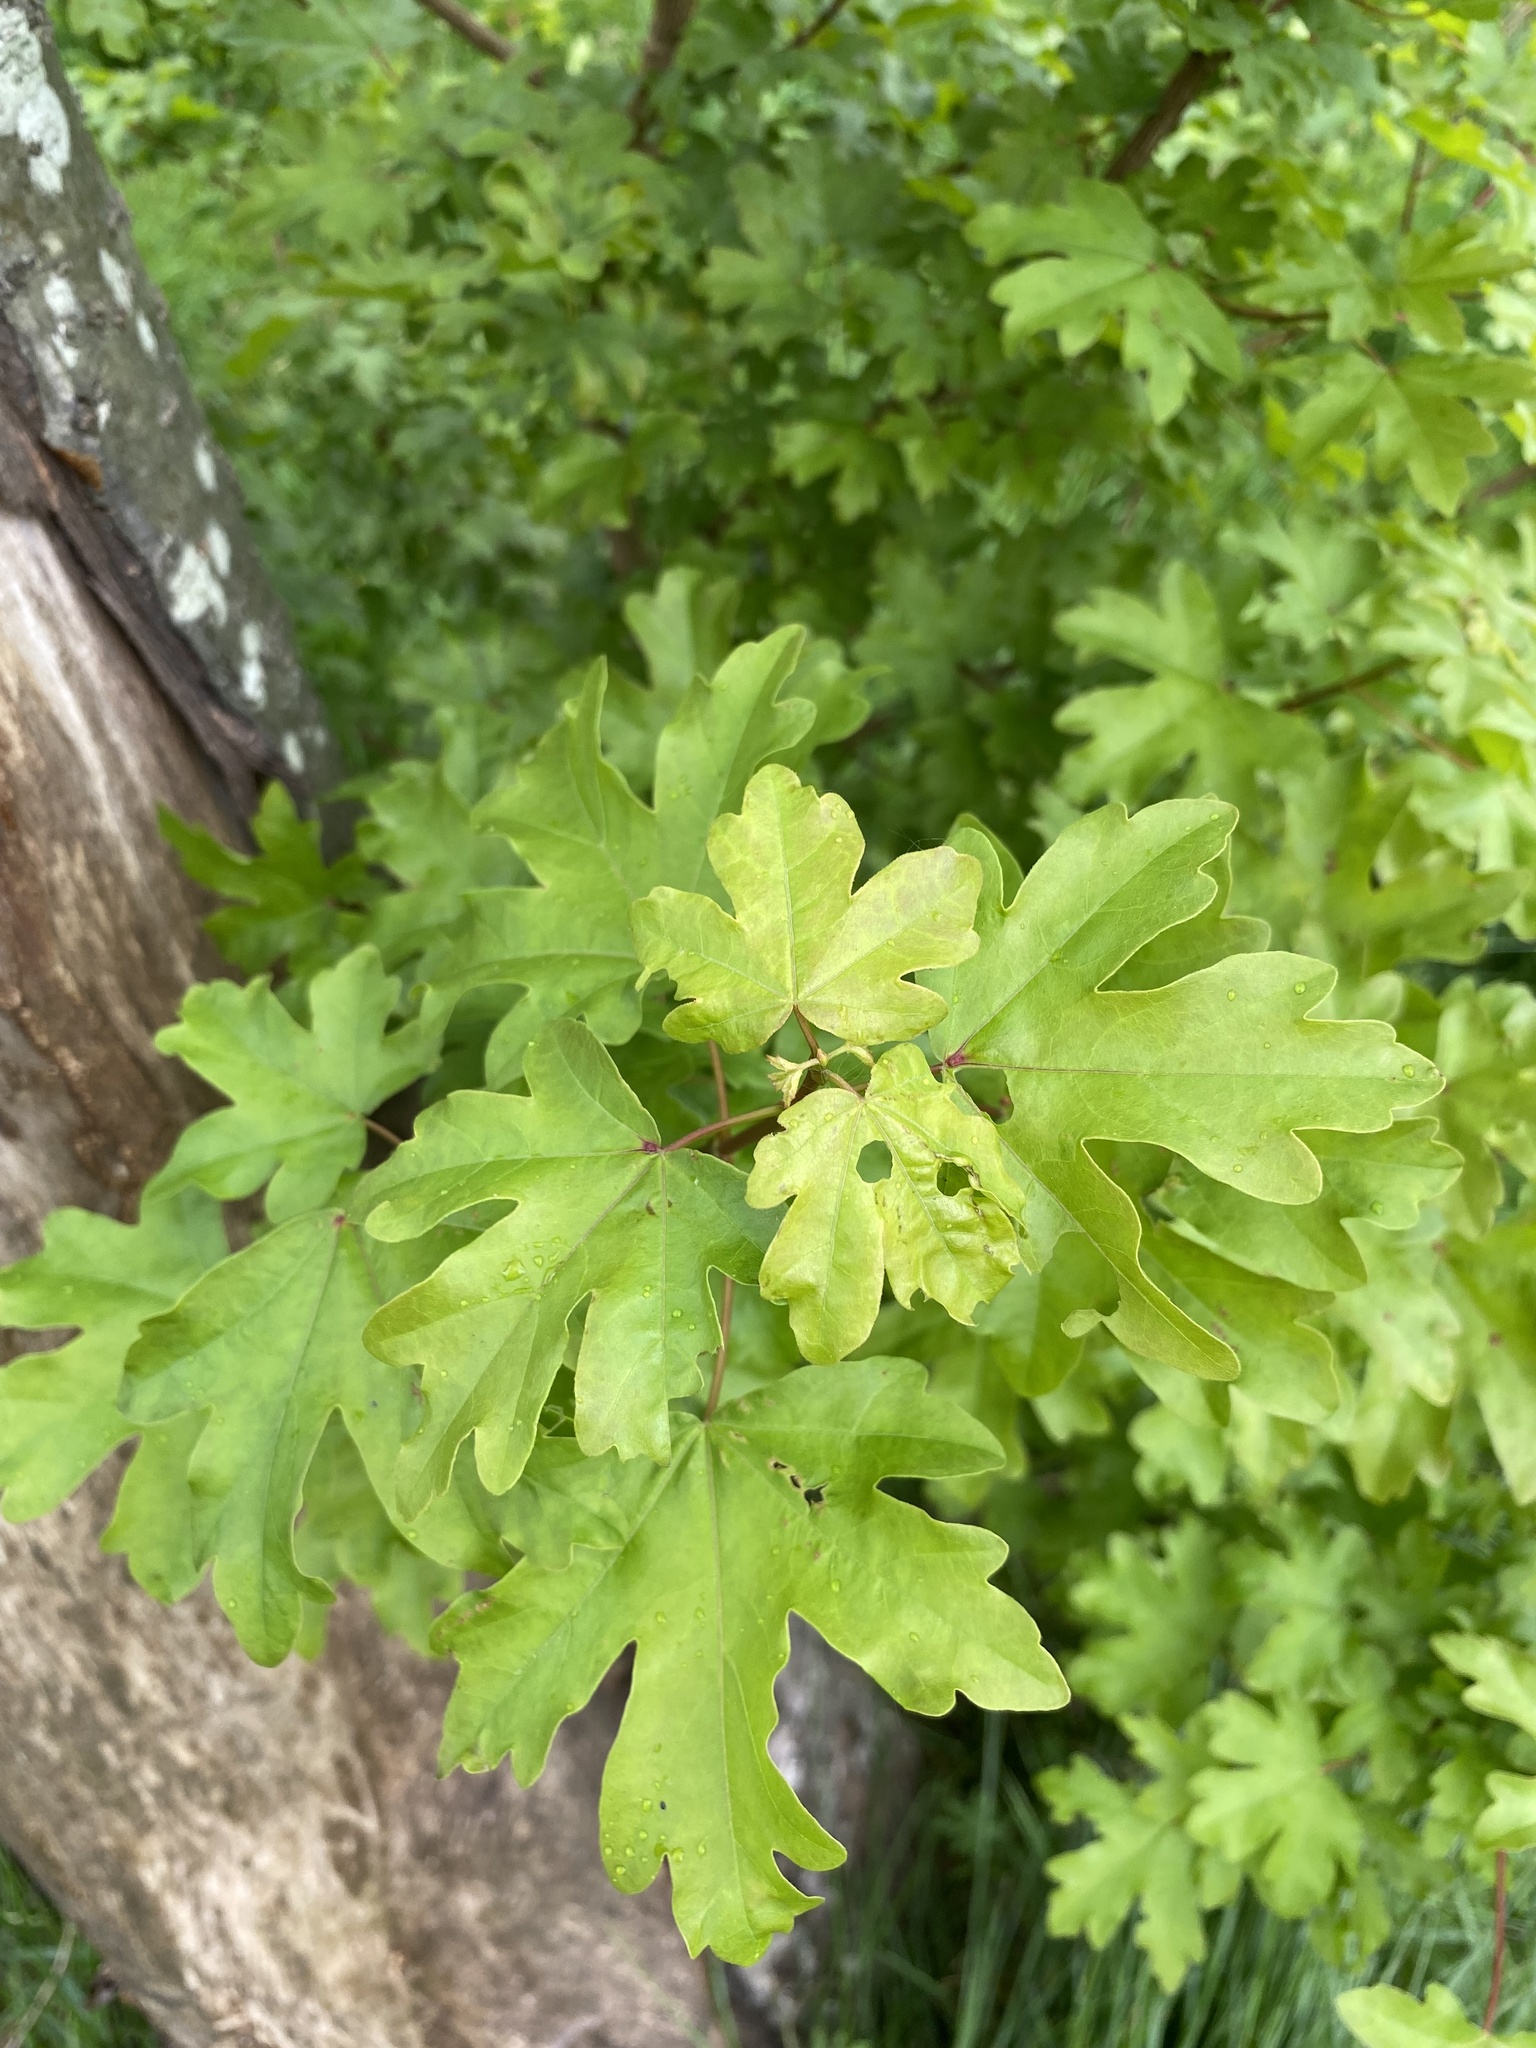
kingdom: Plantae
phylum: Tracheophyta
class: Magnoliopsida
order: Sapindales
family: Sapindaceae
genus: Acer
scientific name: Acer campestre
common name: Field maple
